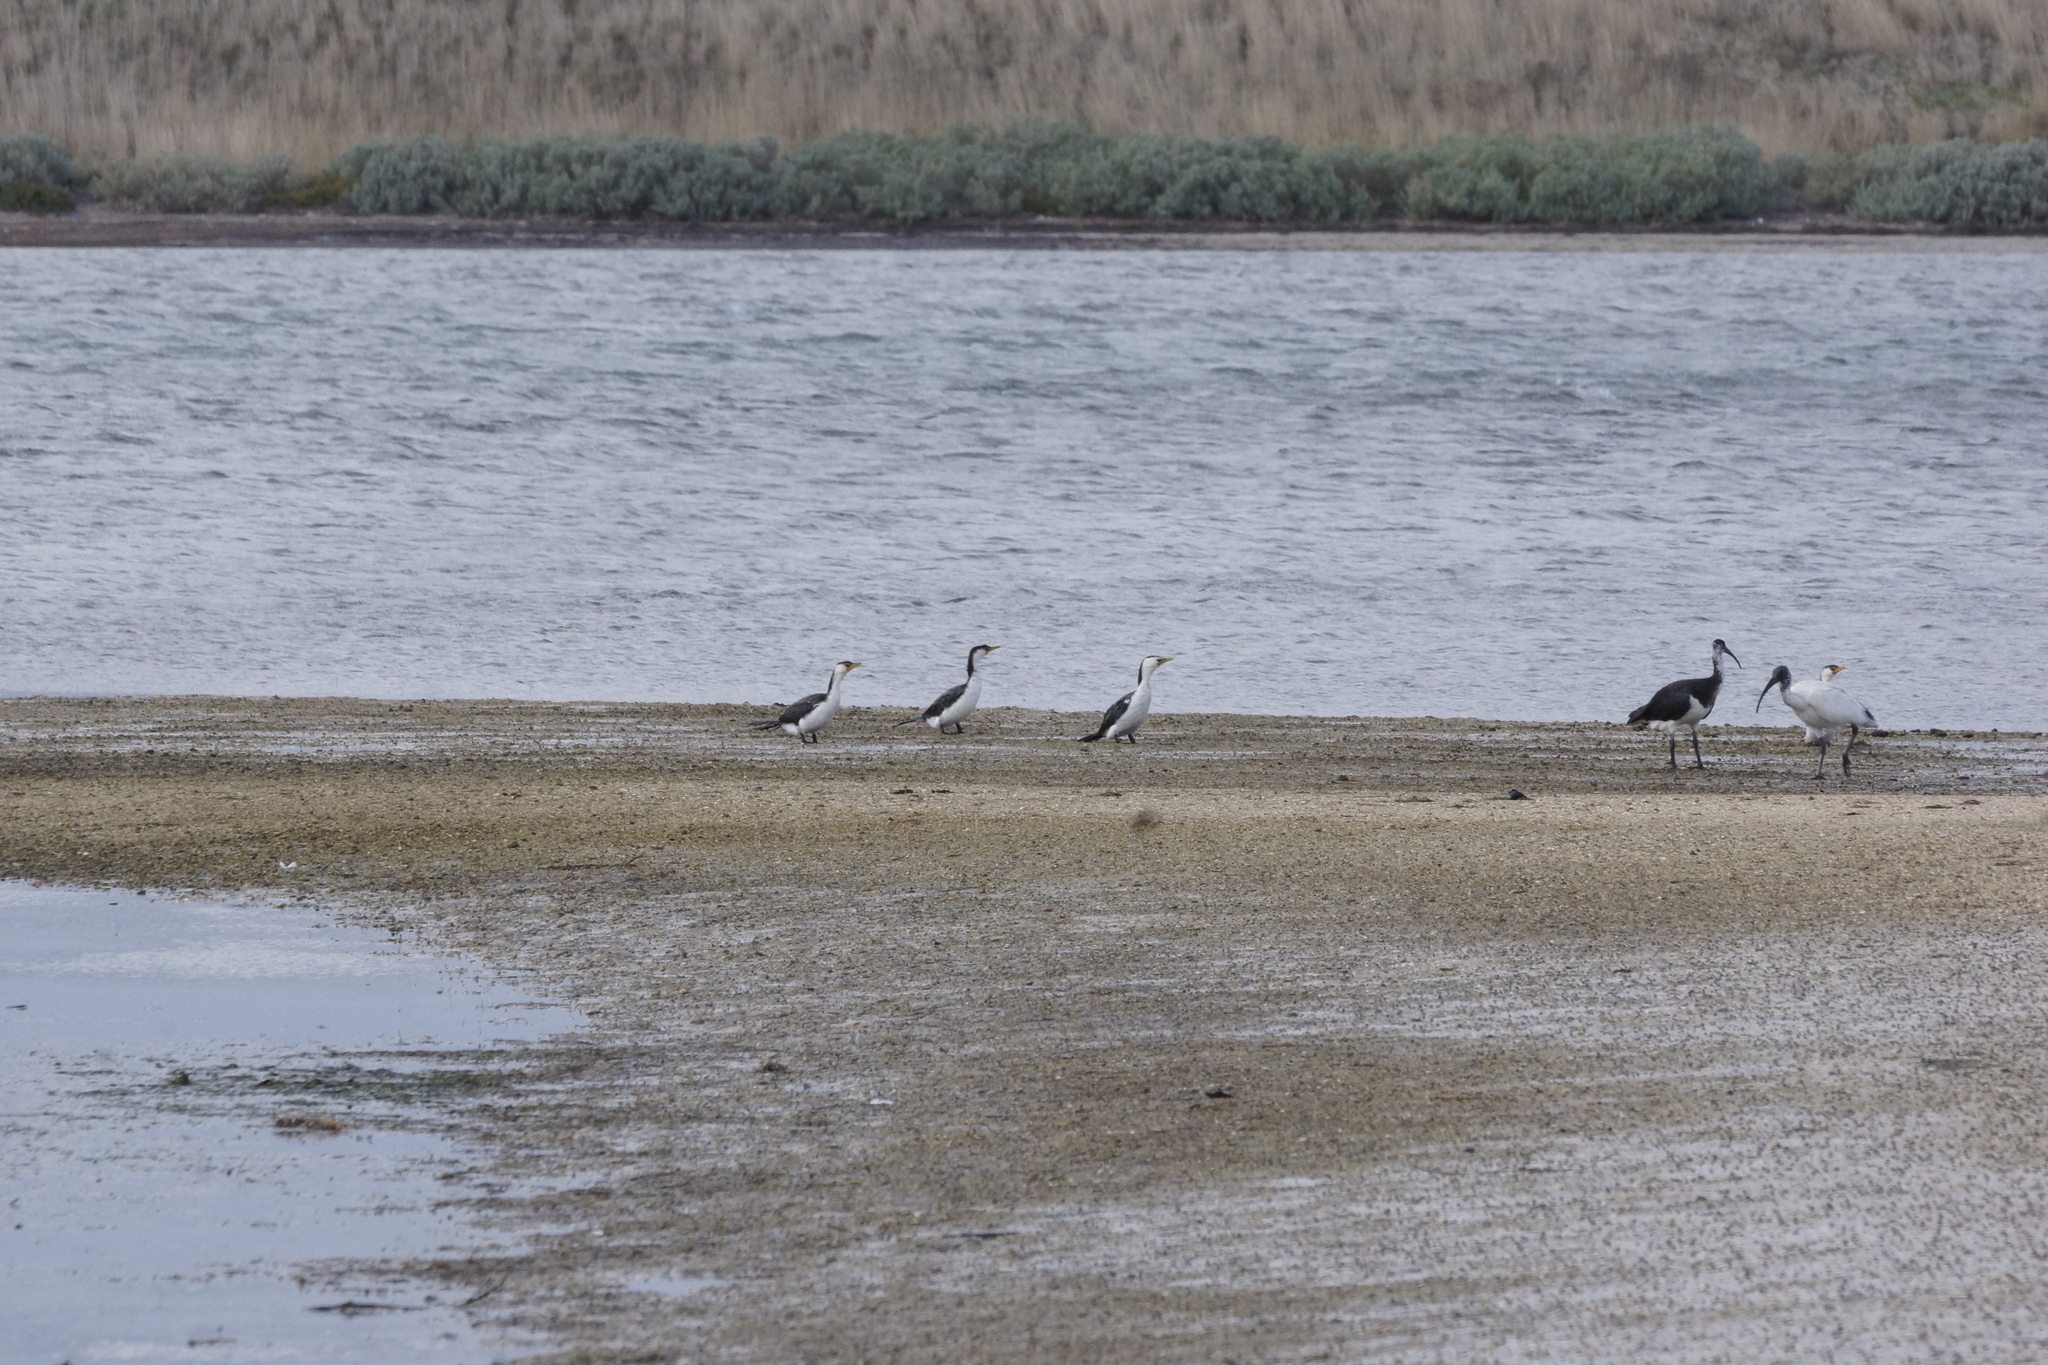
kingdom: Animalia
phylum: Chordata
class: Aves
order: Suliformes
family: Phalacrocoracidae
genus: Microcarbo
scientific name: Microcarbo melanoleucos
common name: Little pied cormorant
